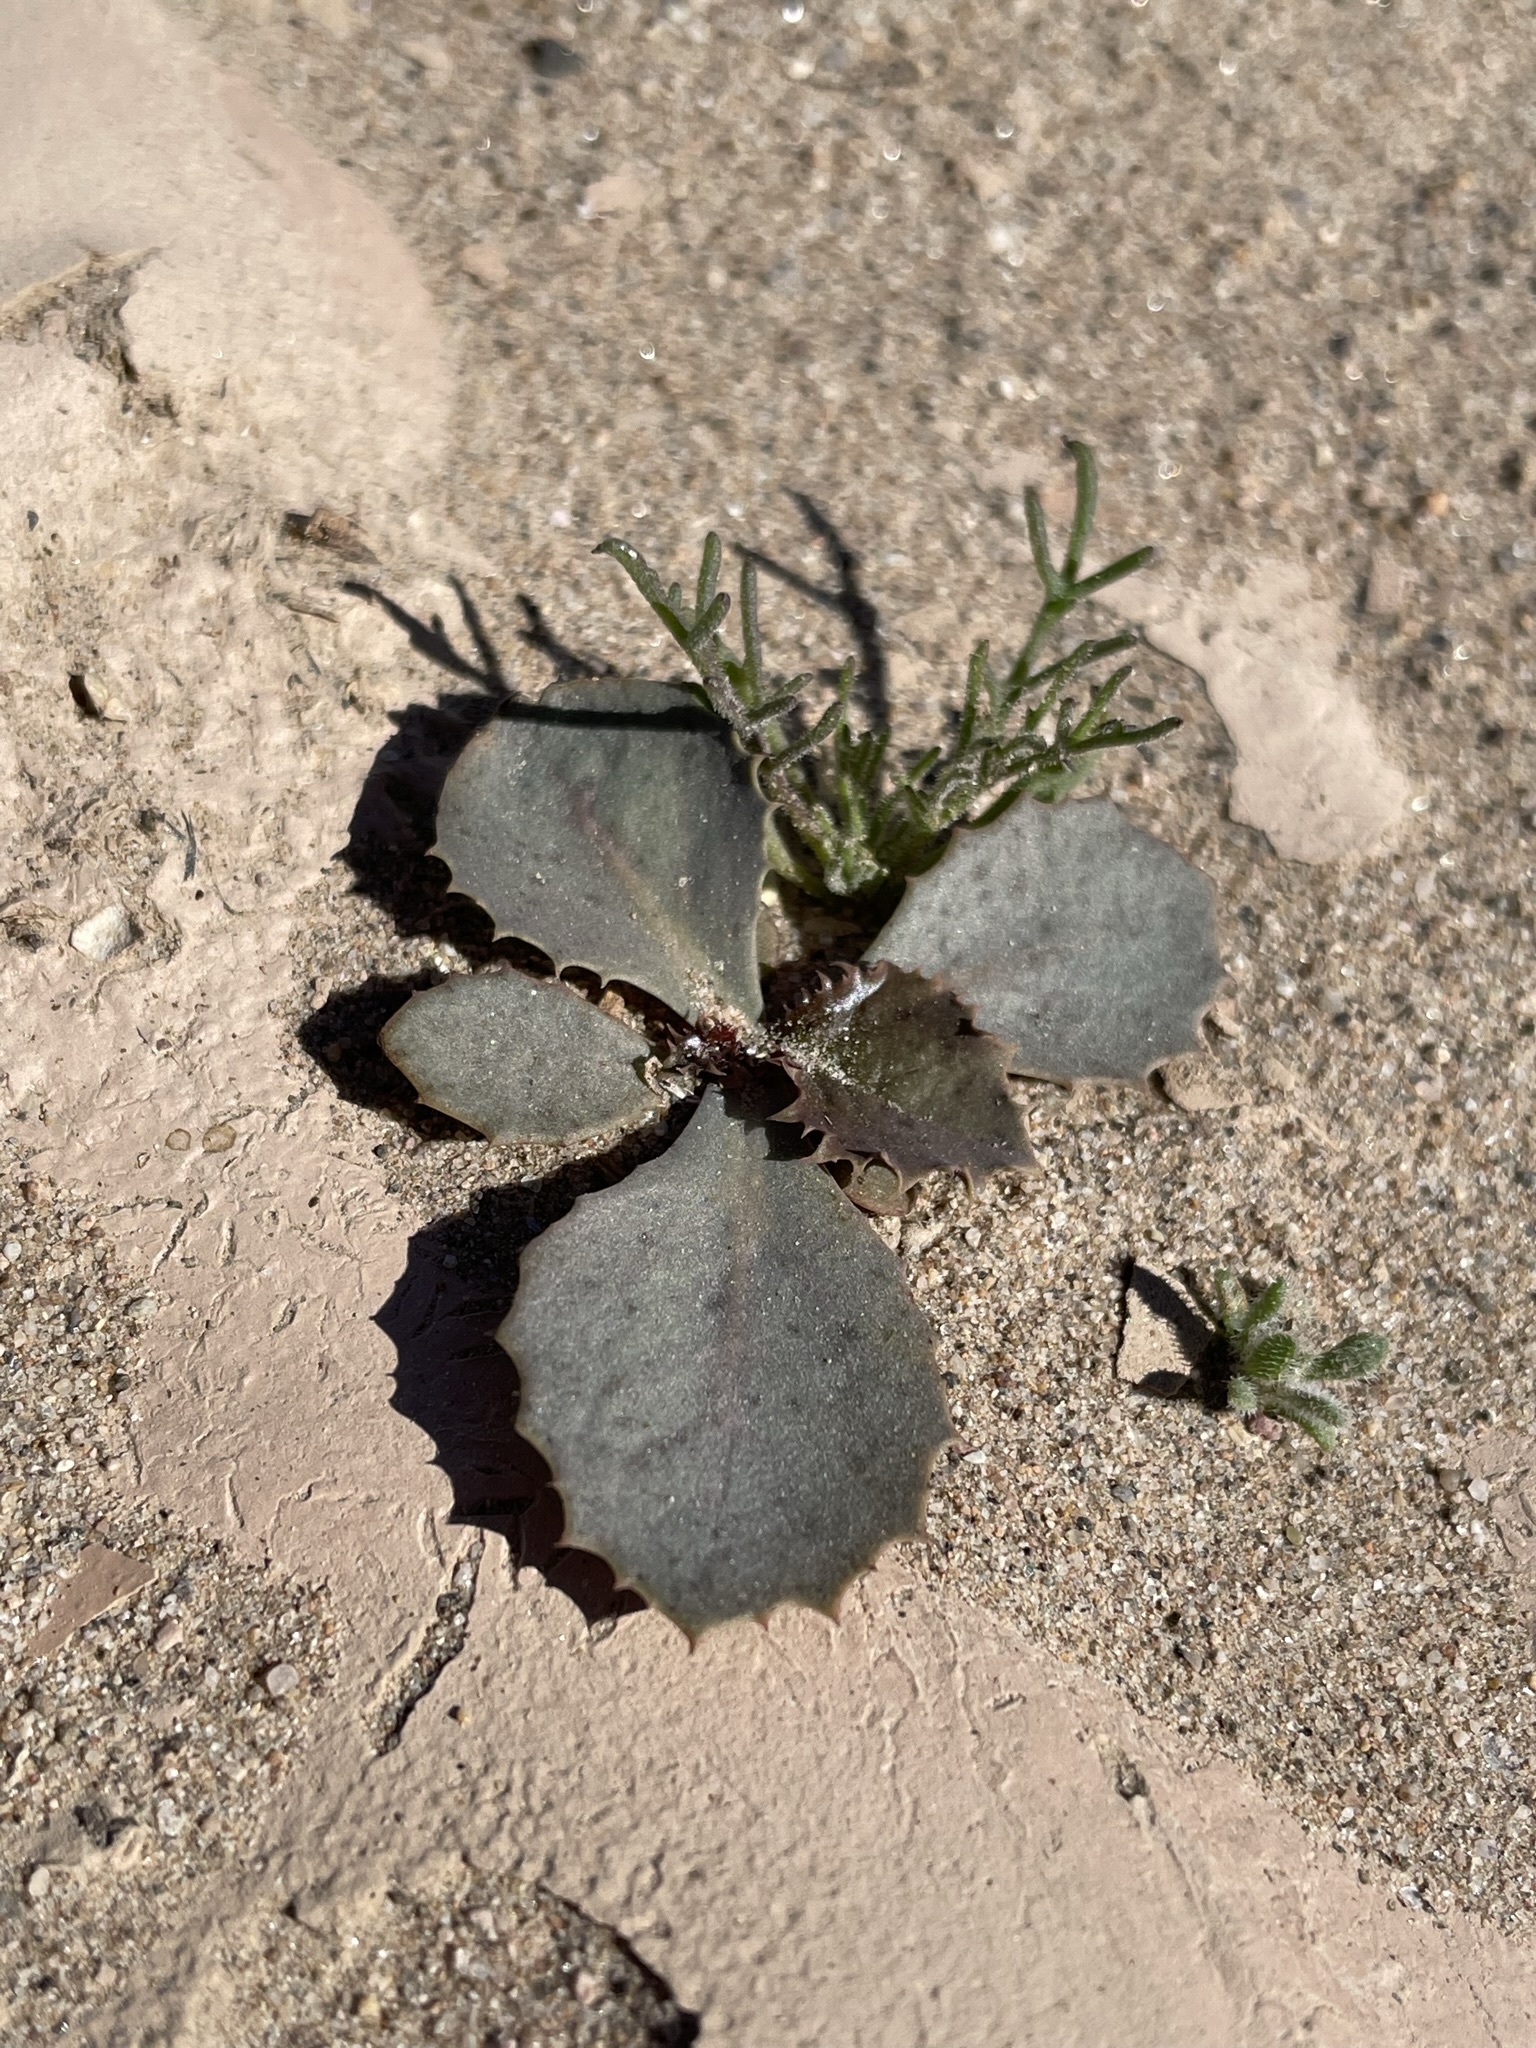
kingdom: Plantae
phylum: Tracheophyta
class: Magnoliopsida
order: Asterales
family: Asteraceae
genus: Atrichoseris
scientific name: Atrichoseris platyphylla
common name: Tobaccoweed
